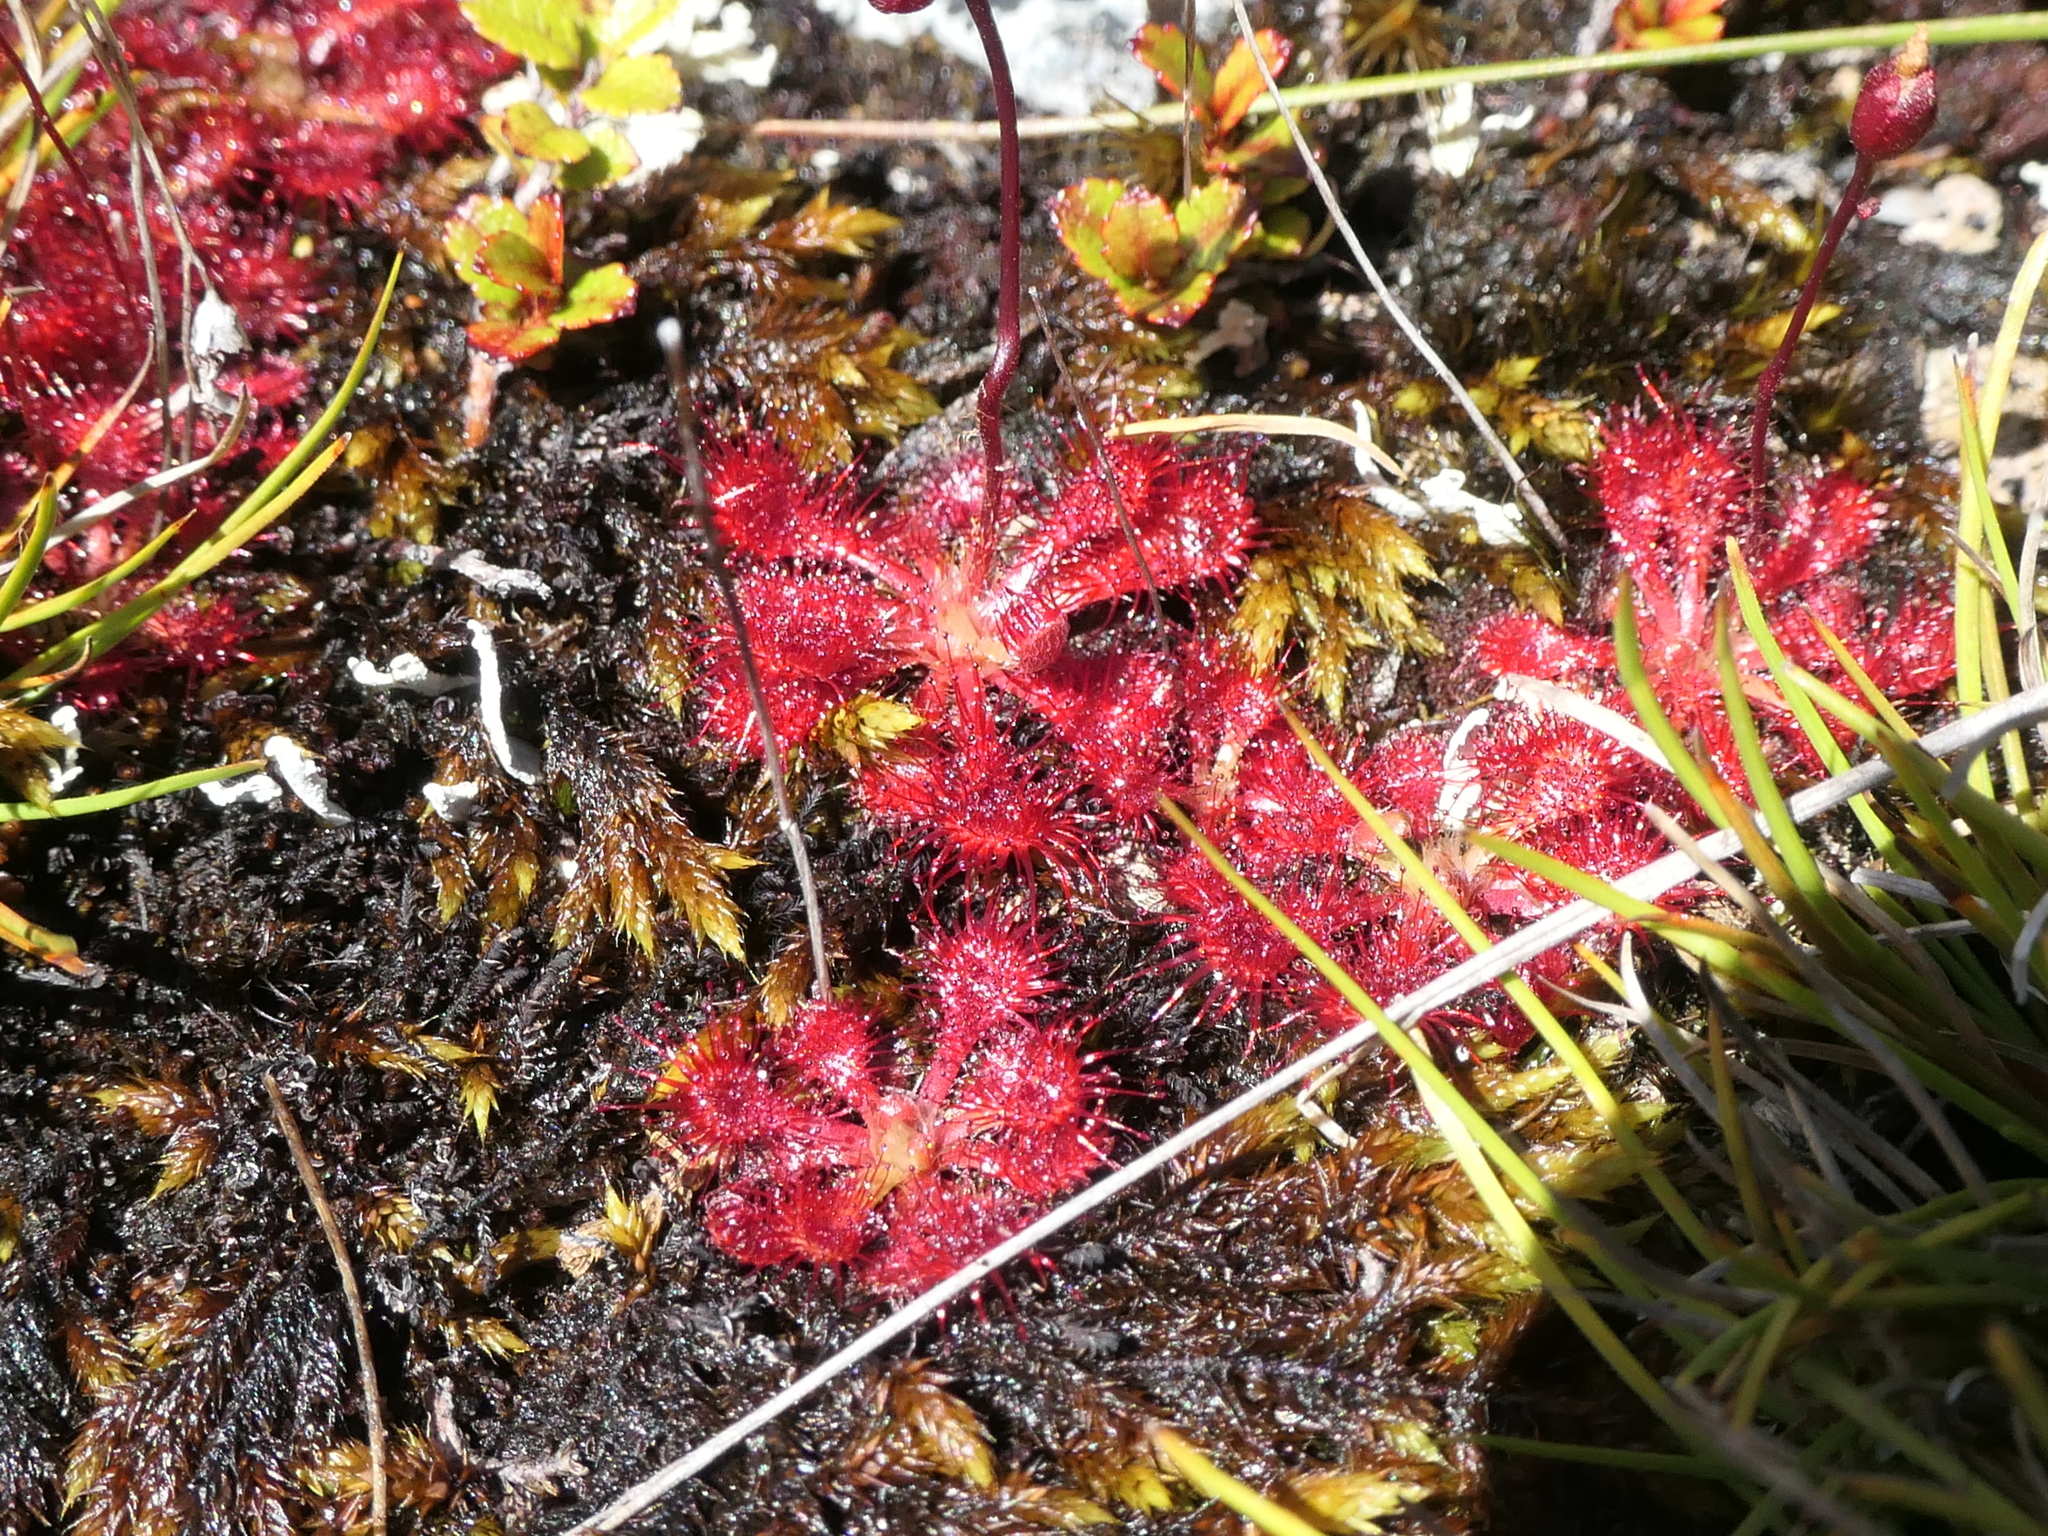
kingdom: Plantae
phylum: Tracheophyta
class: Magnoliopsida
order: Caryophyllales
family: Droseraceae
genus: Drosera
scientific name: Drosera spatulata
